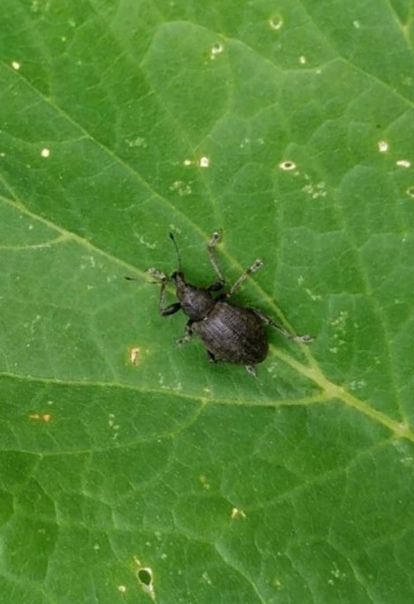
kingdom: Animalia
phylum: Arthropoda
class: Insecta
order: Coleoptera
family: Curculionidae
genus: Liophloeus
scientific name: Liophloeus tessulatus
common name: Weevil
